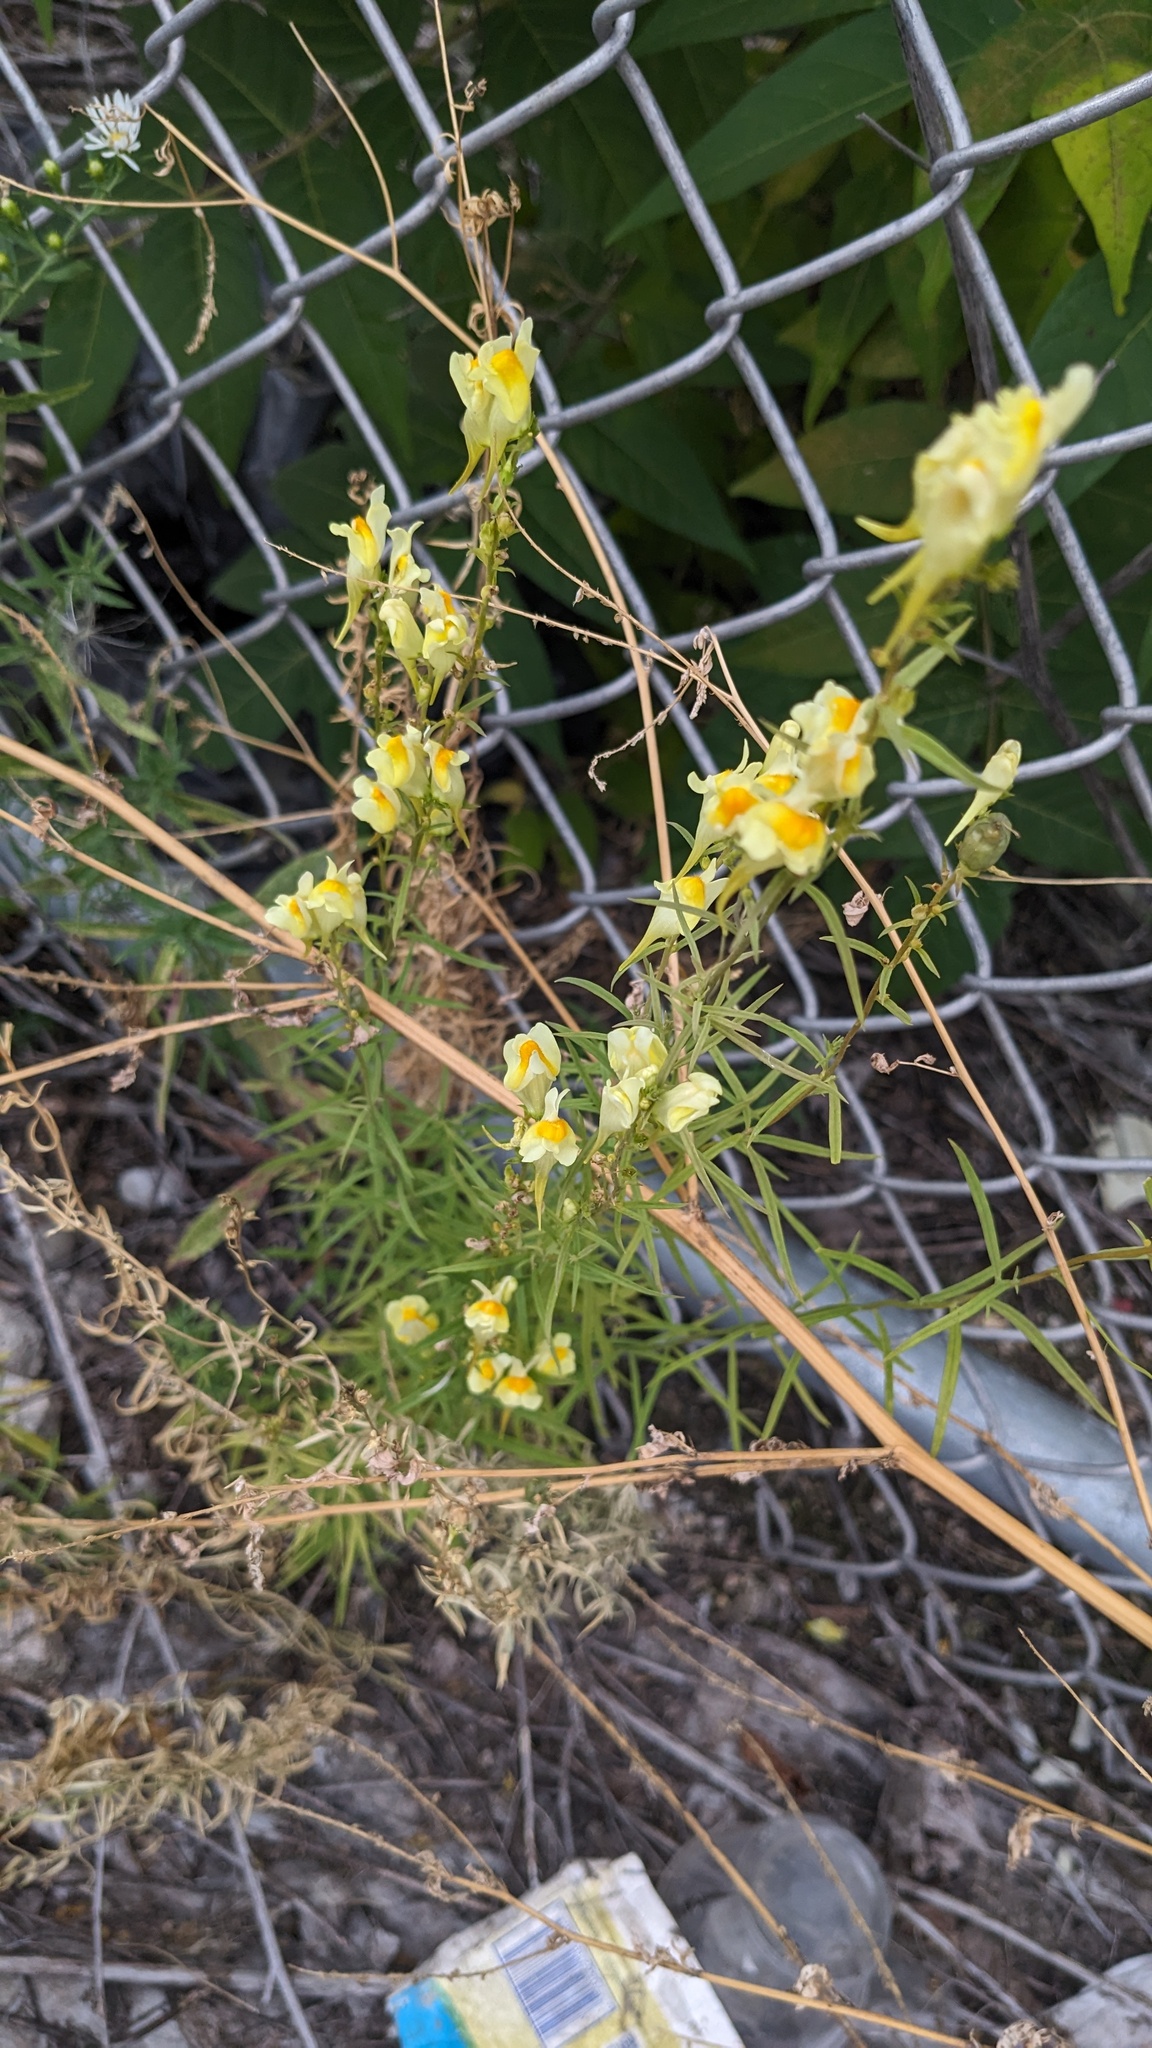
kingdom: Plantae
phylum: Tracheophyta
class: Magnoliopsida
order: Lamiales
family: Plantaginaceae
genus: Linaria
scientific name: Linaria vulgaris
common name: Butter and eggs
